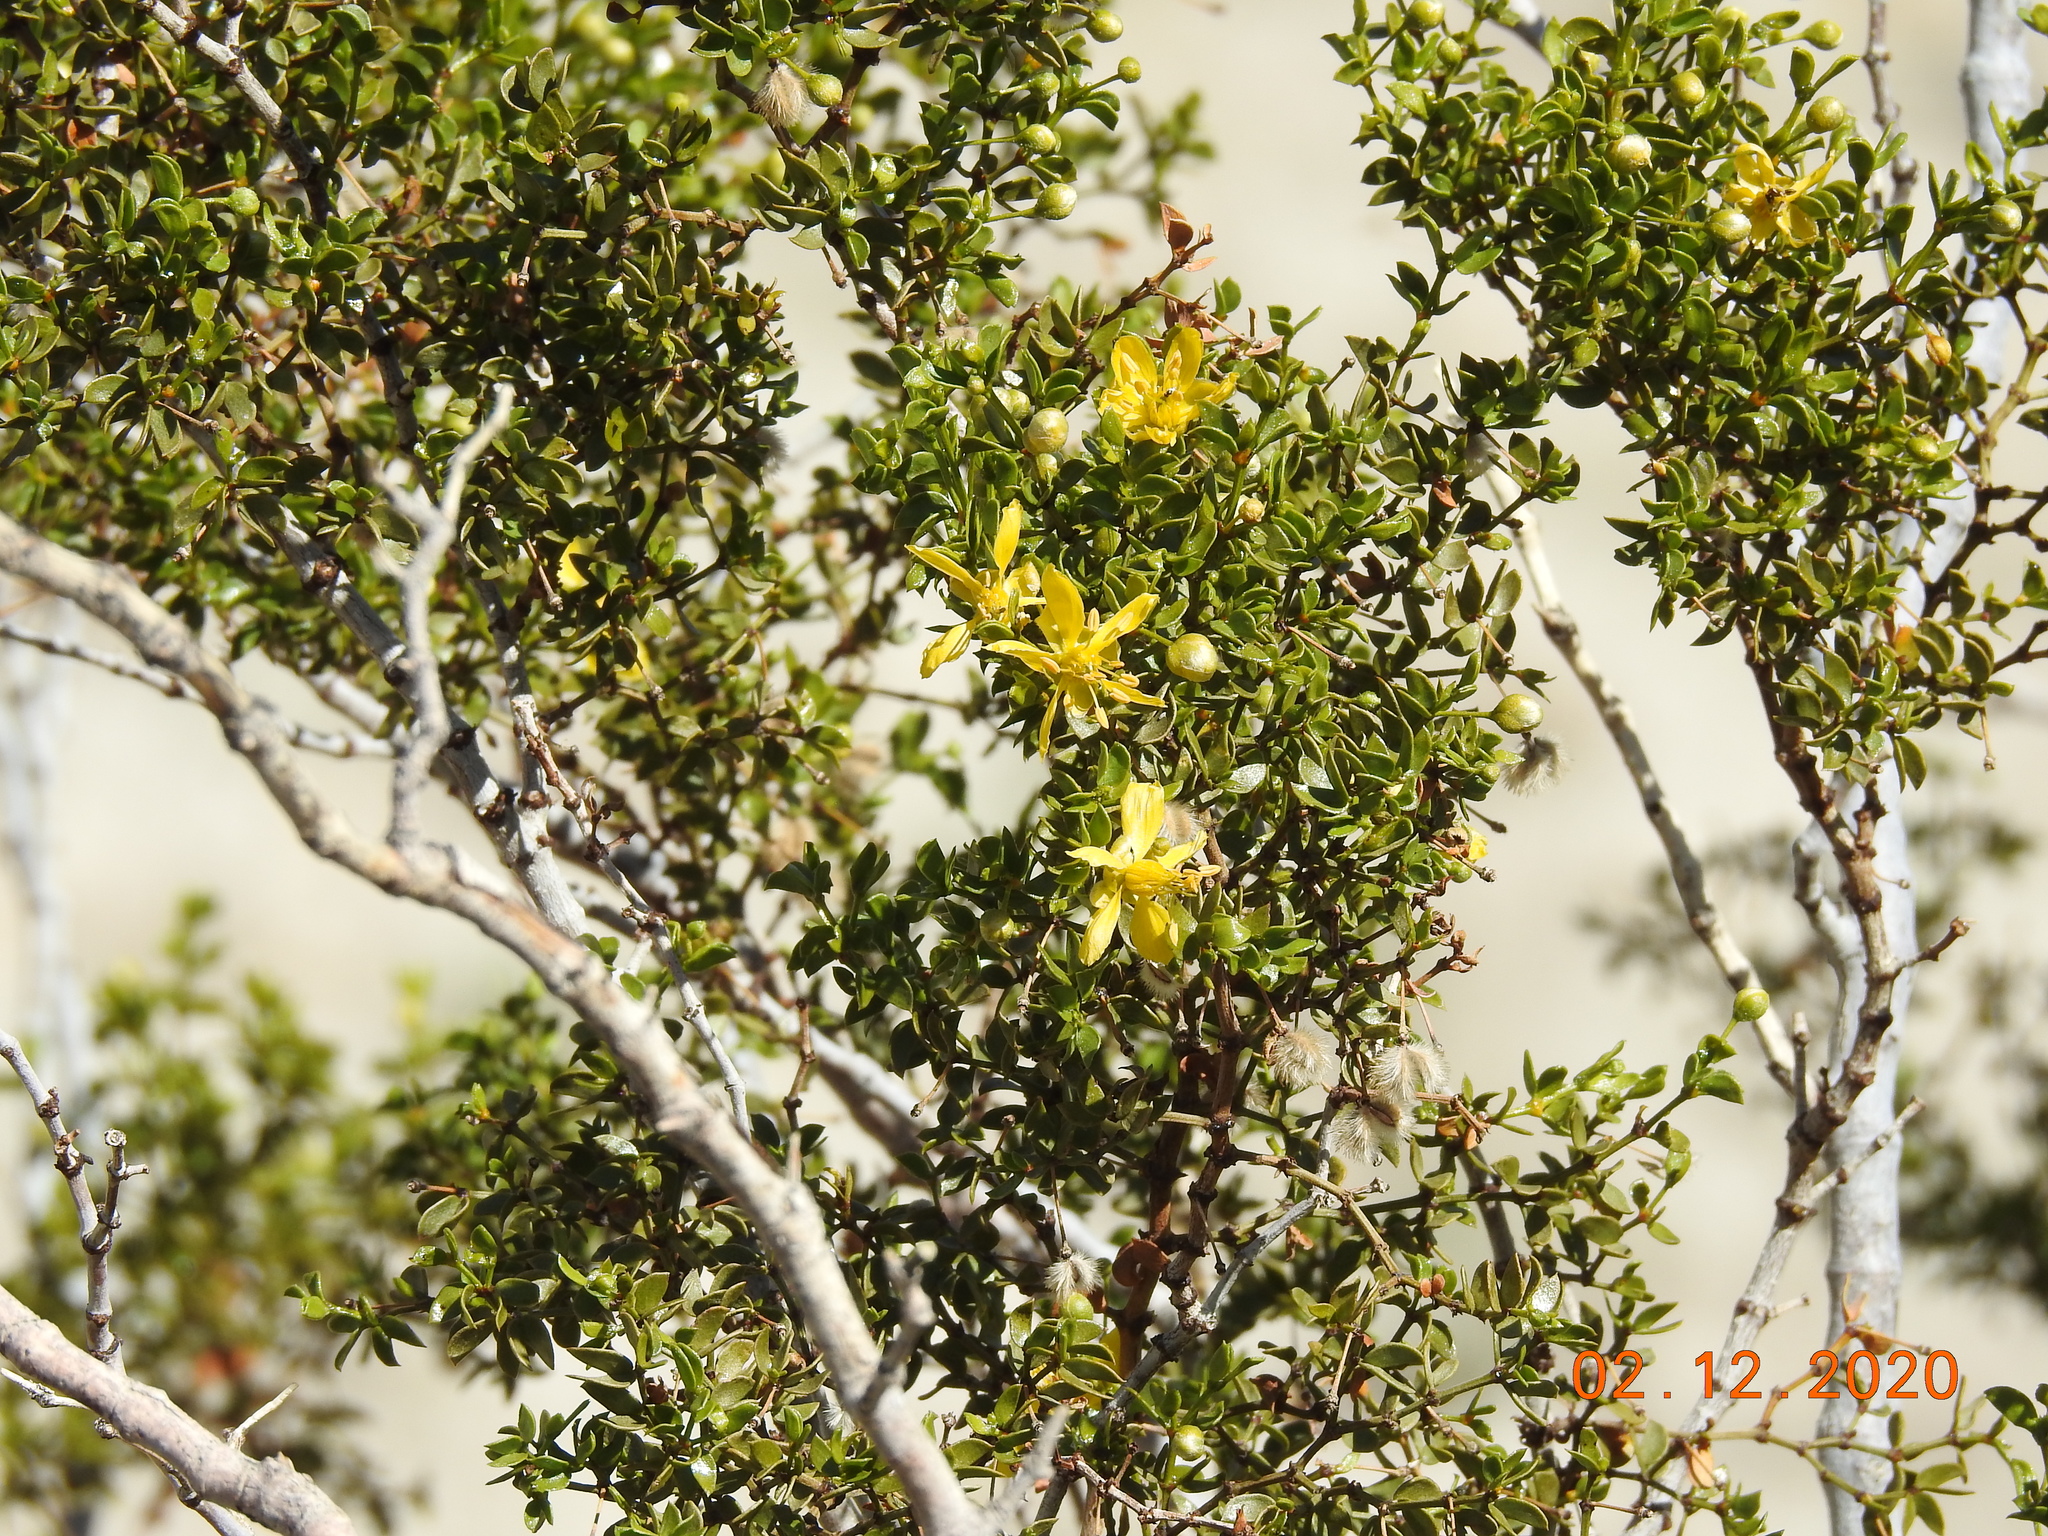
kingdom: Plantae
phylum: Tracheophyta
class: Magnoliopsida
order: Zygophyllales
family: Zygophyllaceae
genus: Larrea
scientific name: Larrea tridentata
